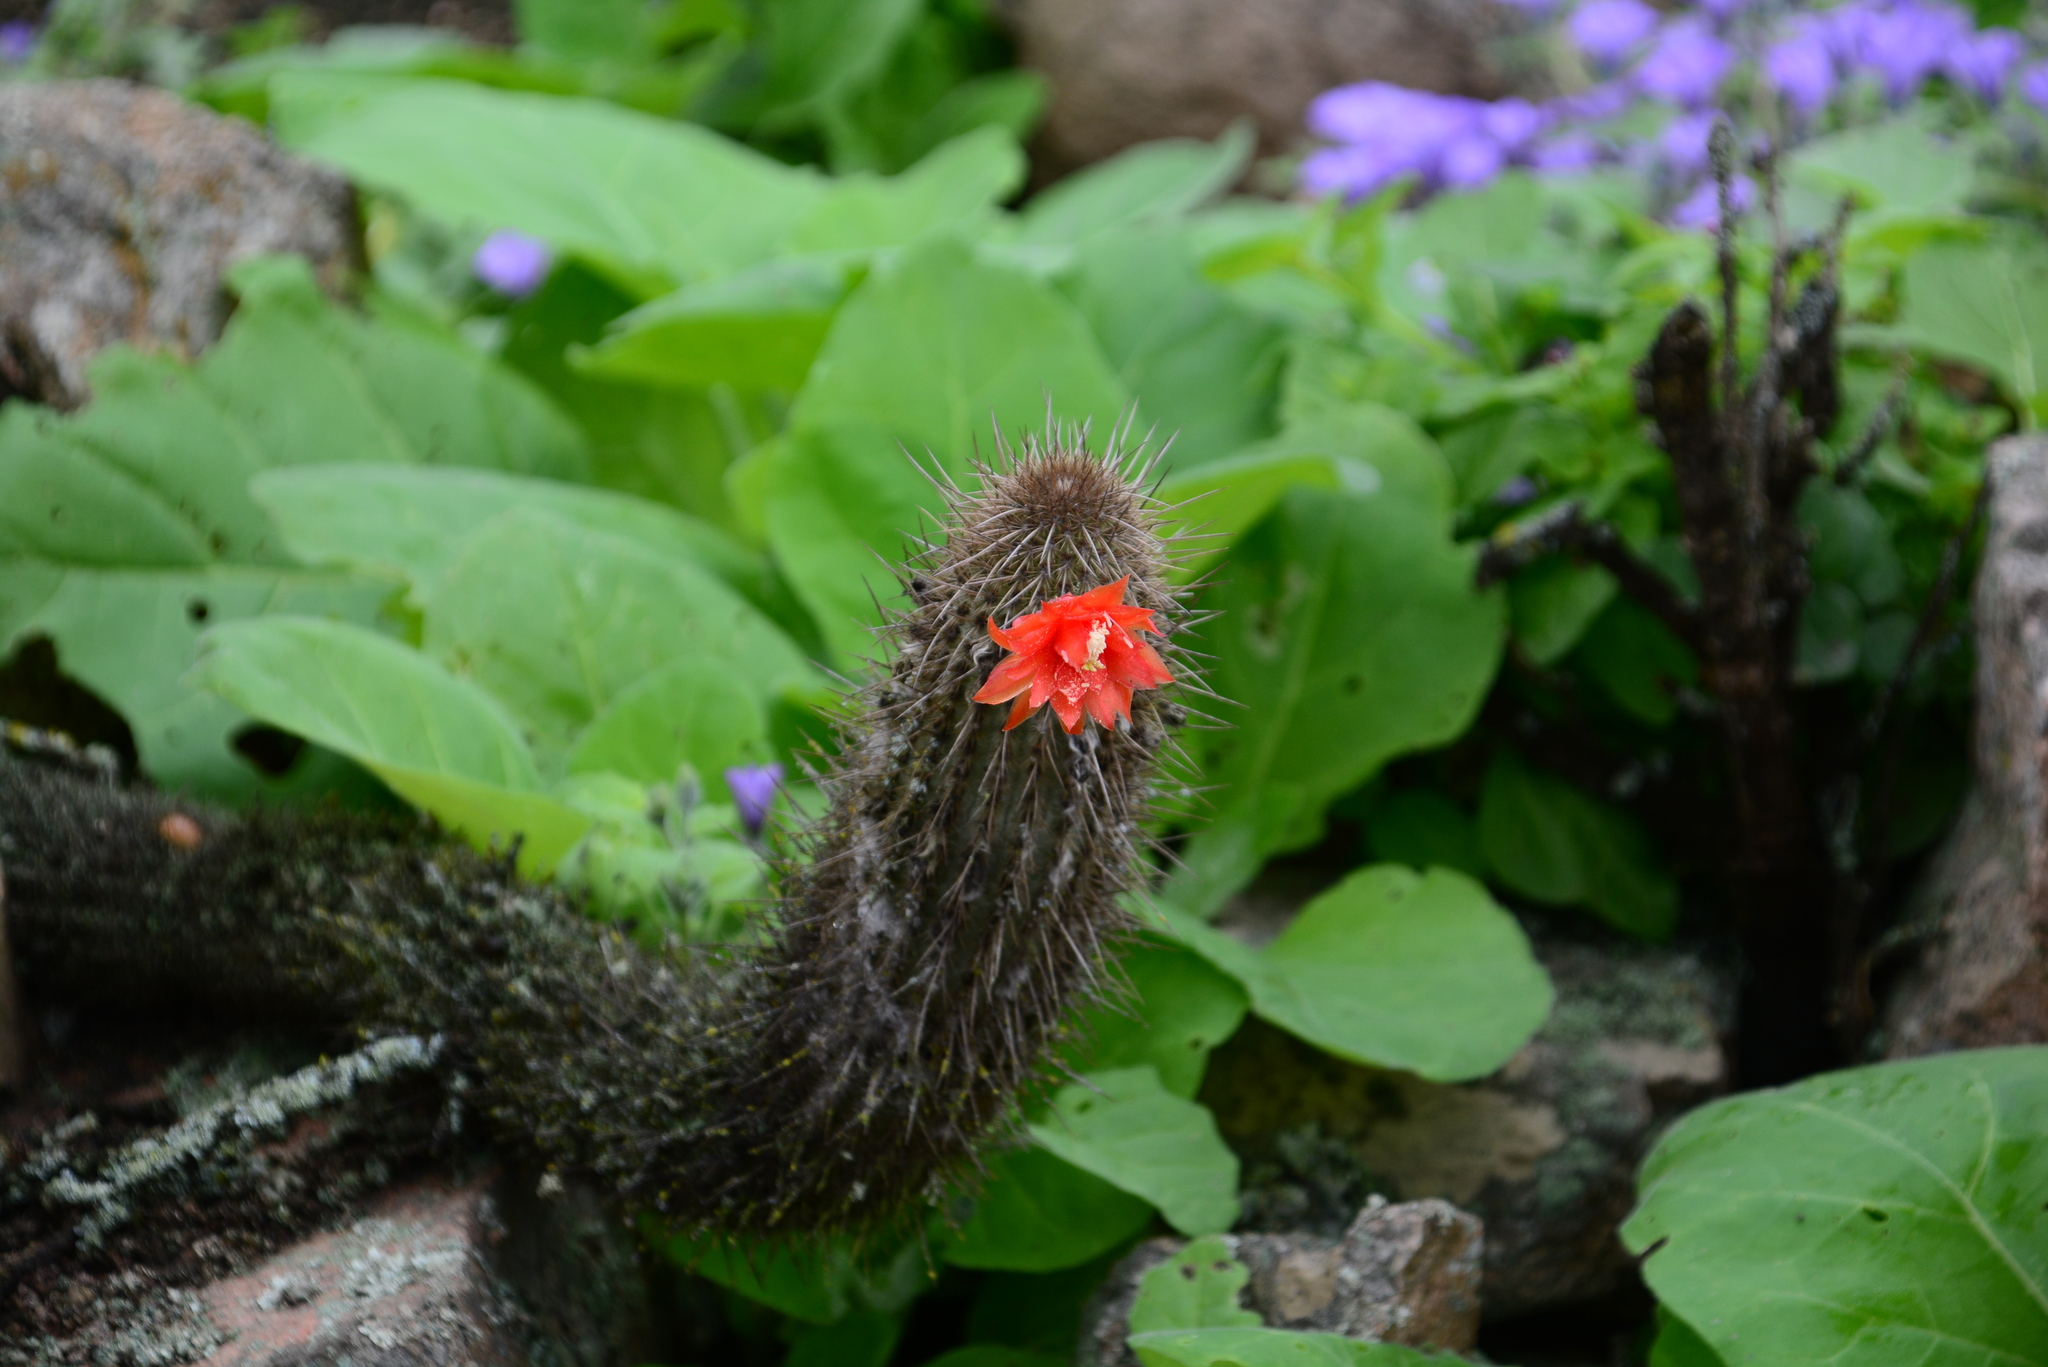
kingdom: Plantae
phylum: Tracheophyta
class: Magnoliopsida
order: Caryophyllales
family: Cactaceae
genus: Borzicactus
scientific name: Borzicactus acanthurus
